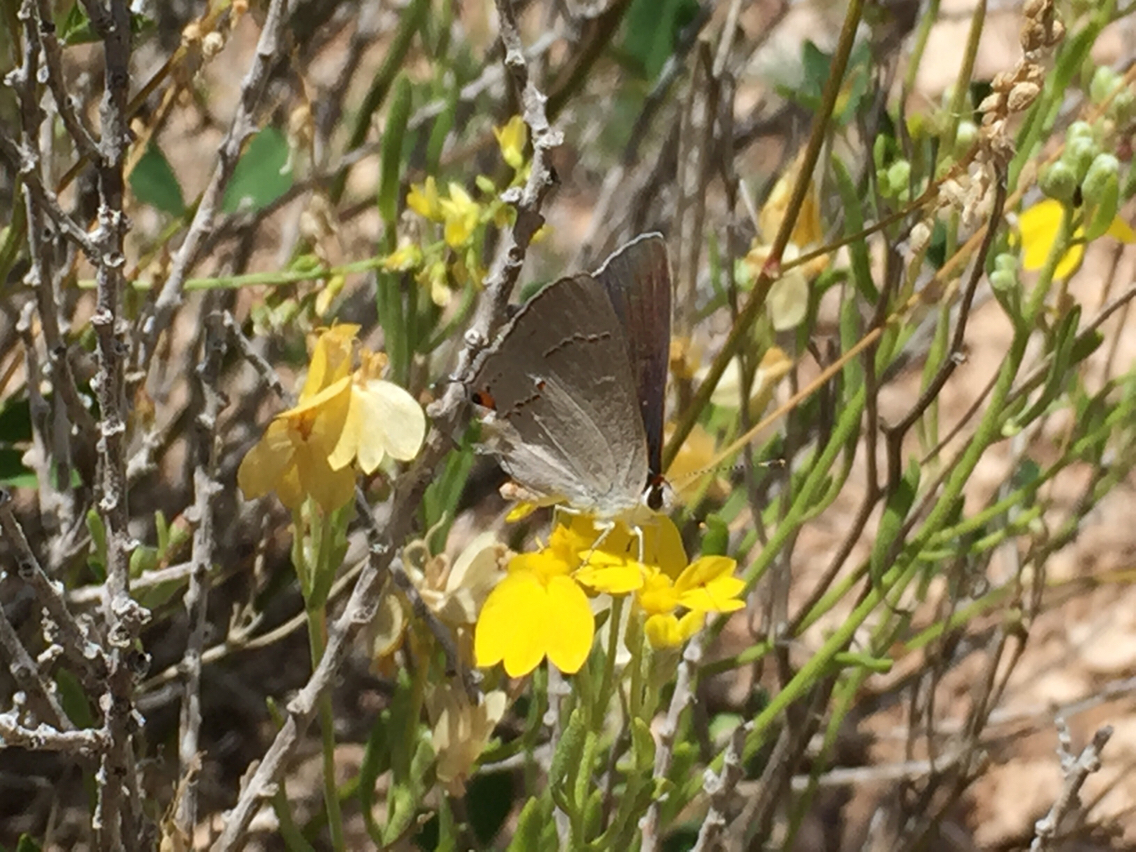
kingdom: Animalia
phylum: Arthropoda
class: Insecta
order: Lepidoptera
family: Lycaenidae
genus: Strymon
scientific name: Strymon melinus
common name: Gray hairstreak
